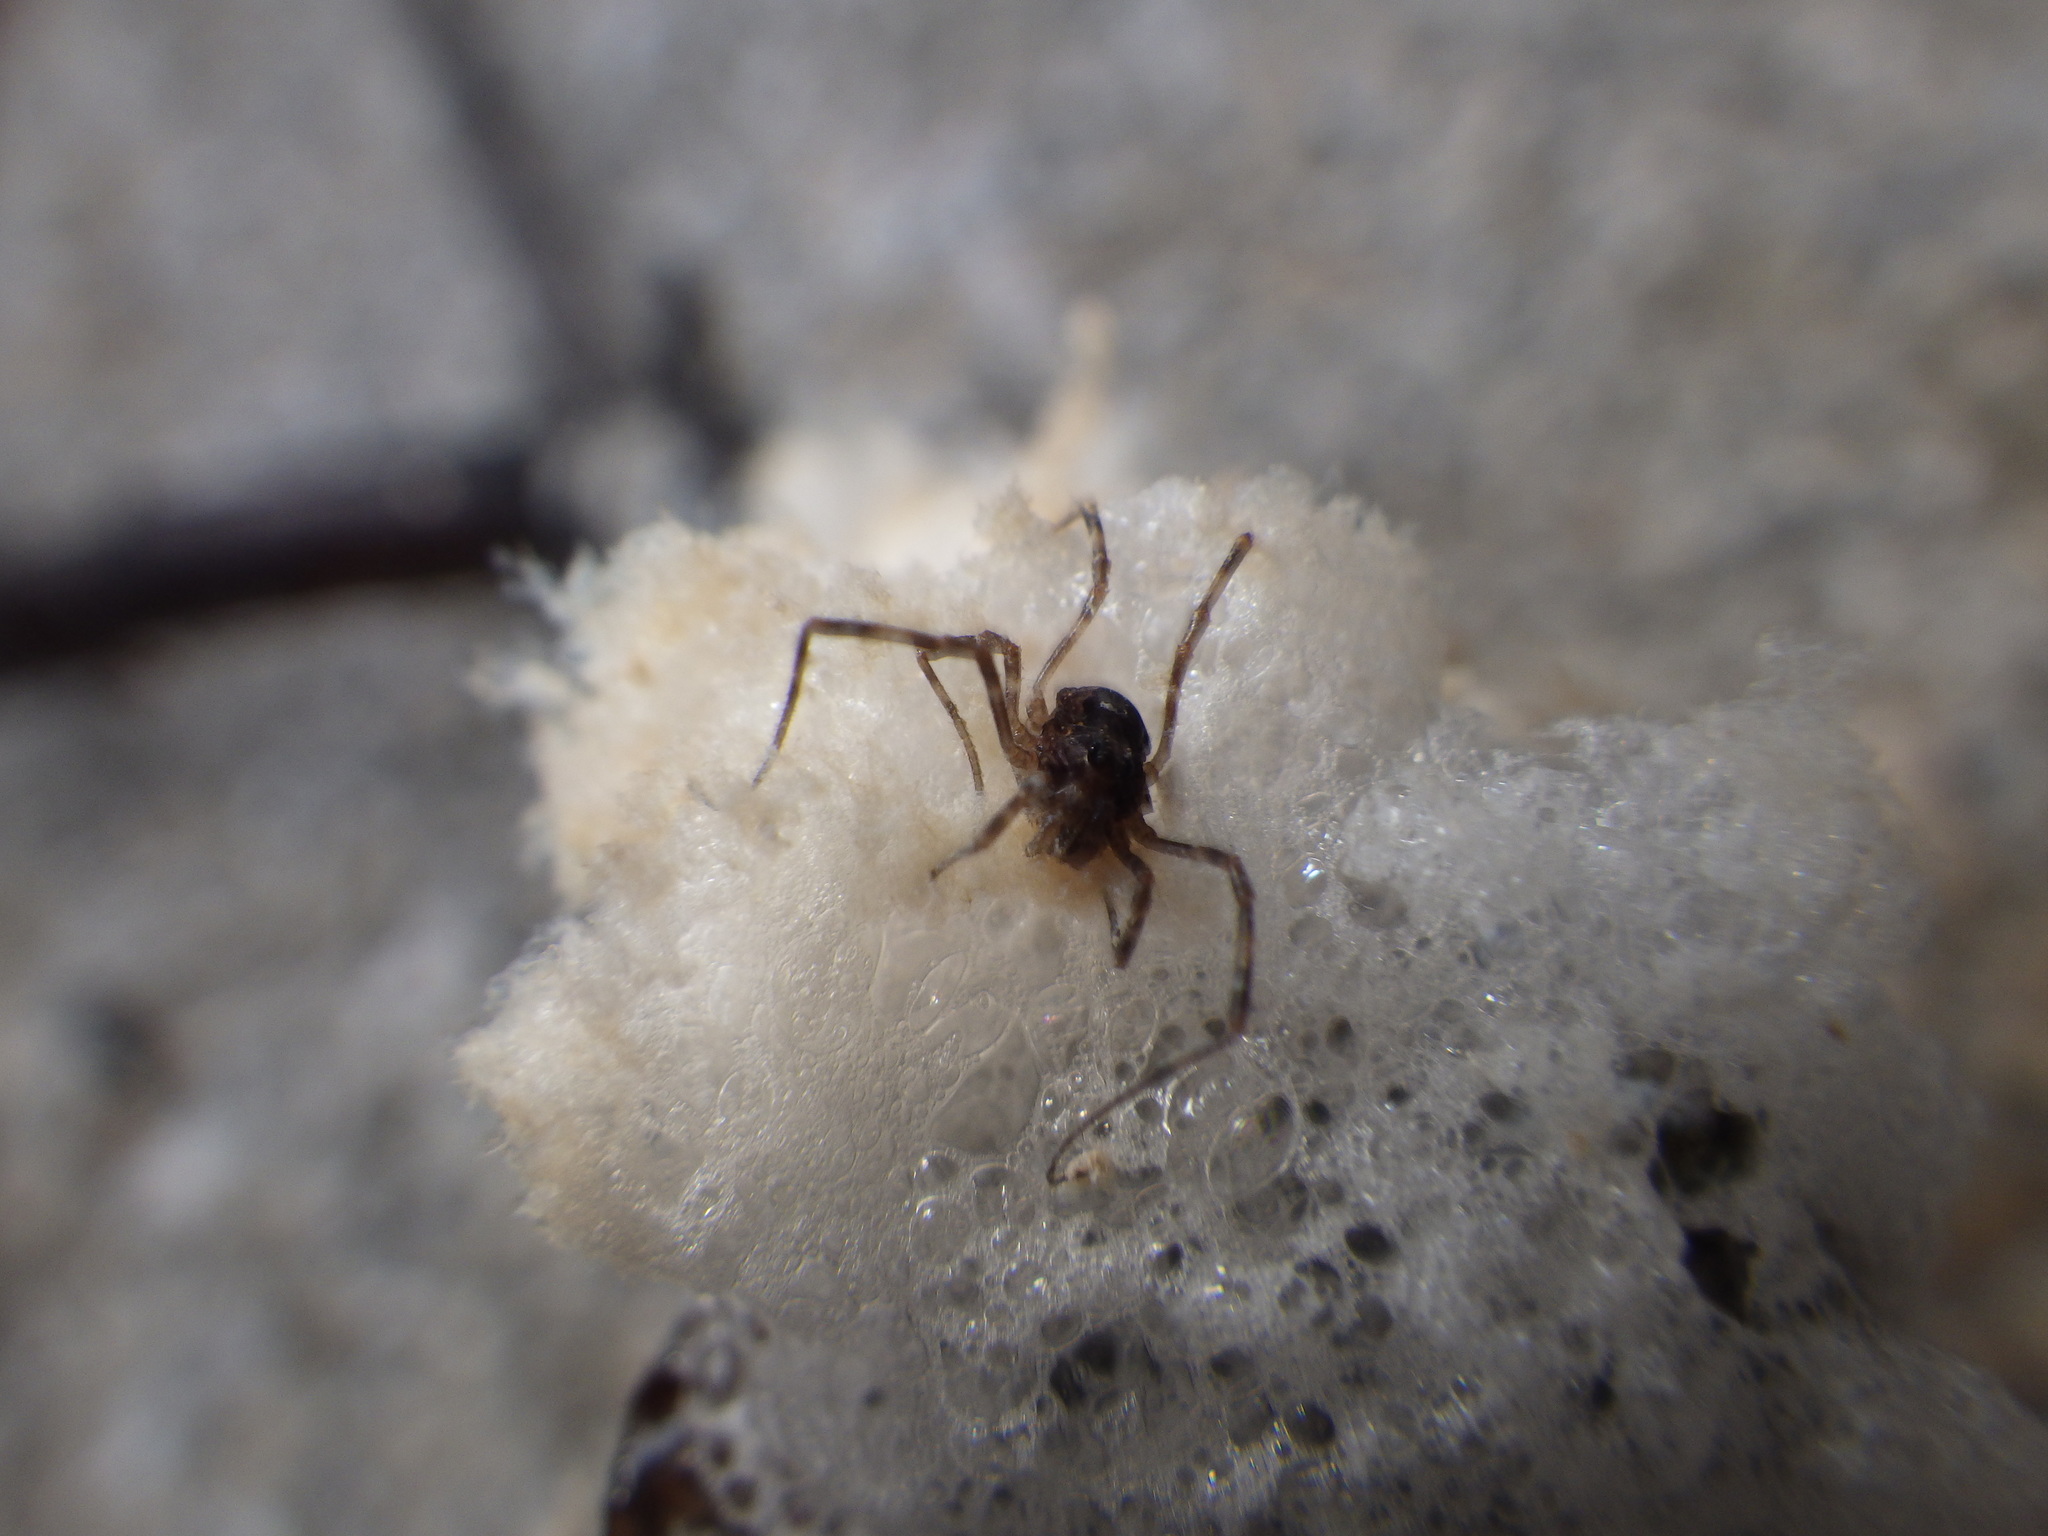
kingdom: Animalia
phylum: Arthropoda
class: Arachnida
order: Opiliones
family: Phalangiidae
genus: Rilaena
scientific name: Rilaena triangularis
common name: Spring harvestman
